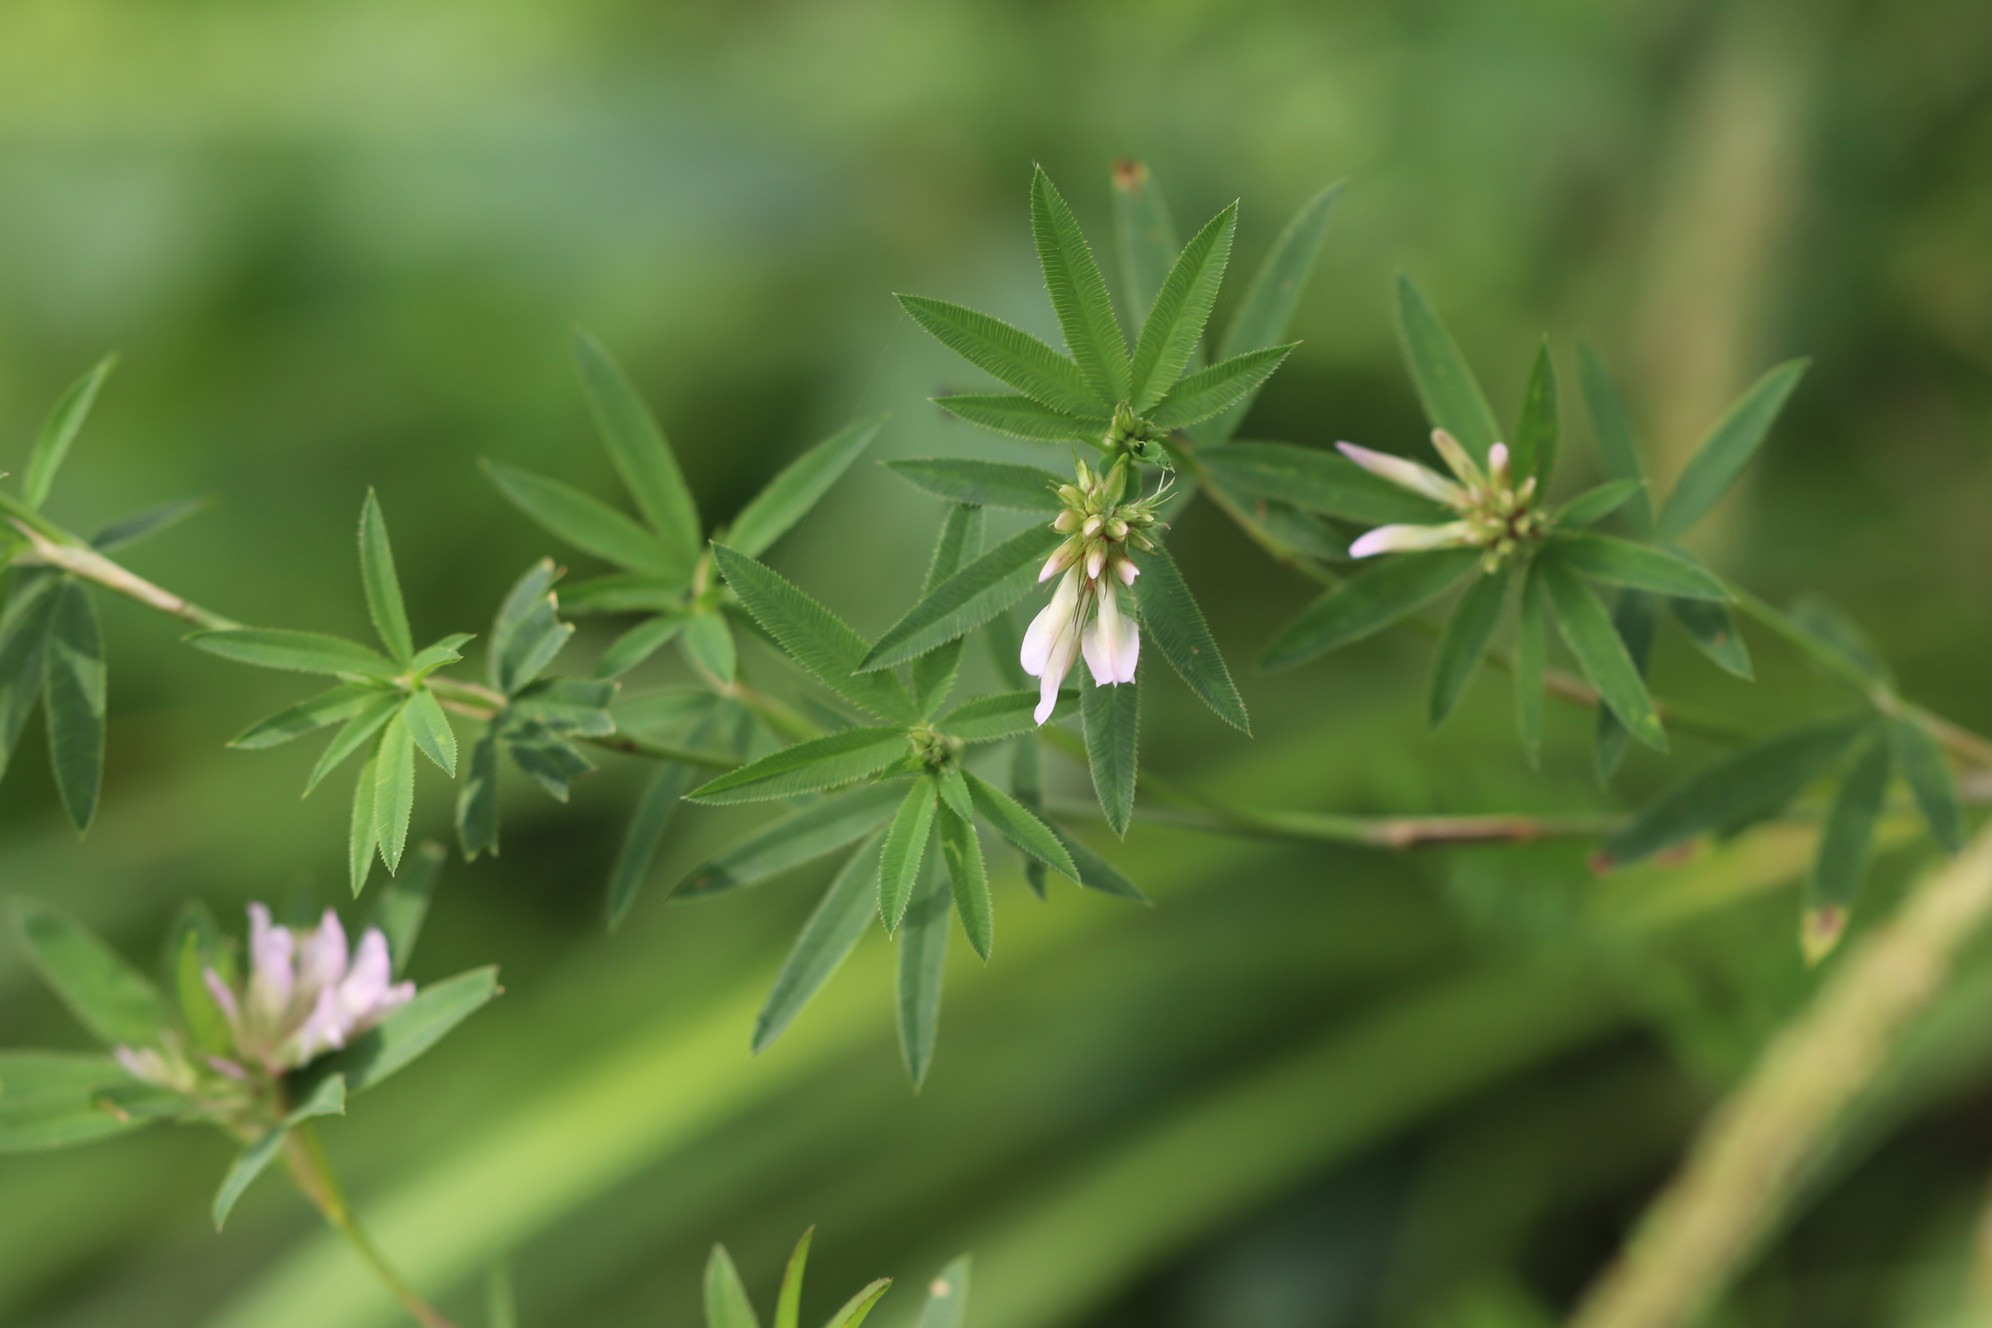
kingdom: Plantae
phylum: Tracheophyta
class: Magnoliopsida
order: Fabales
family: Fabaceae
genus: Trifolium
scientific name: Trifolium lupinaster
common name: Lupine clover
